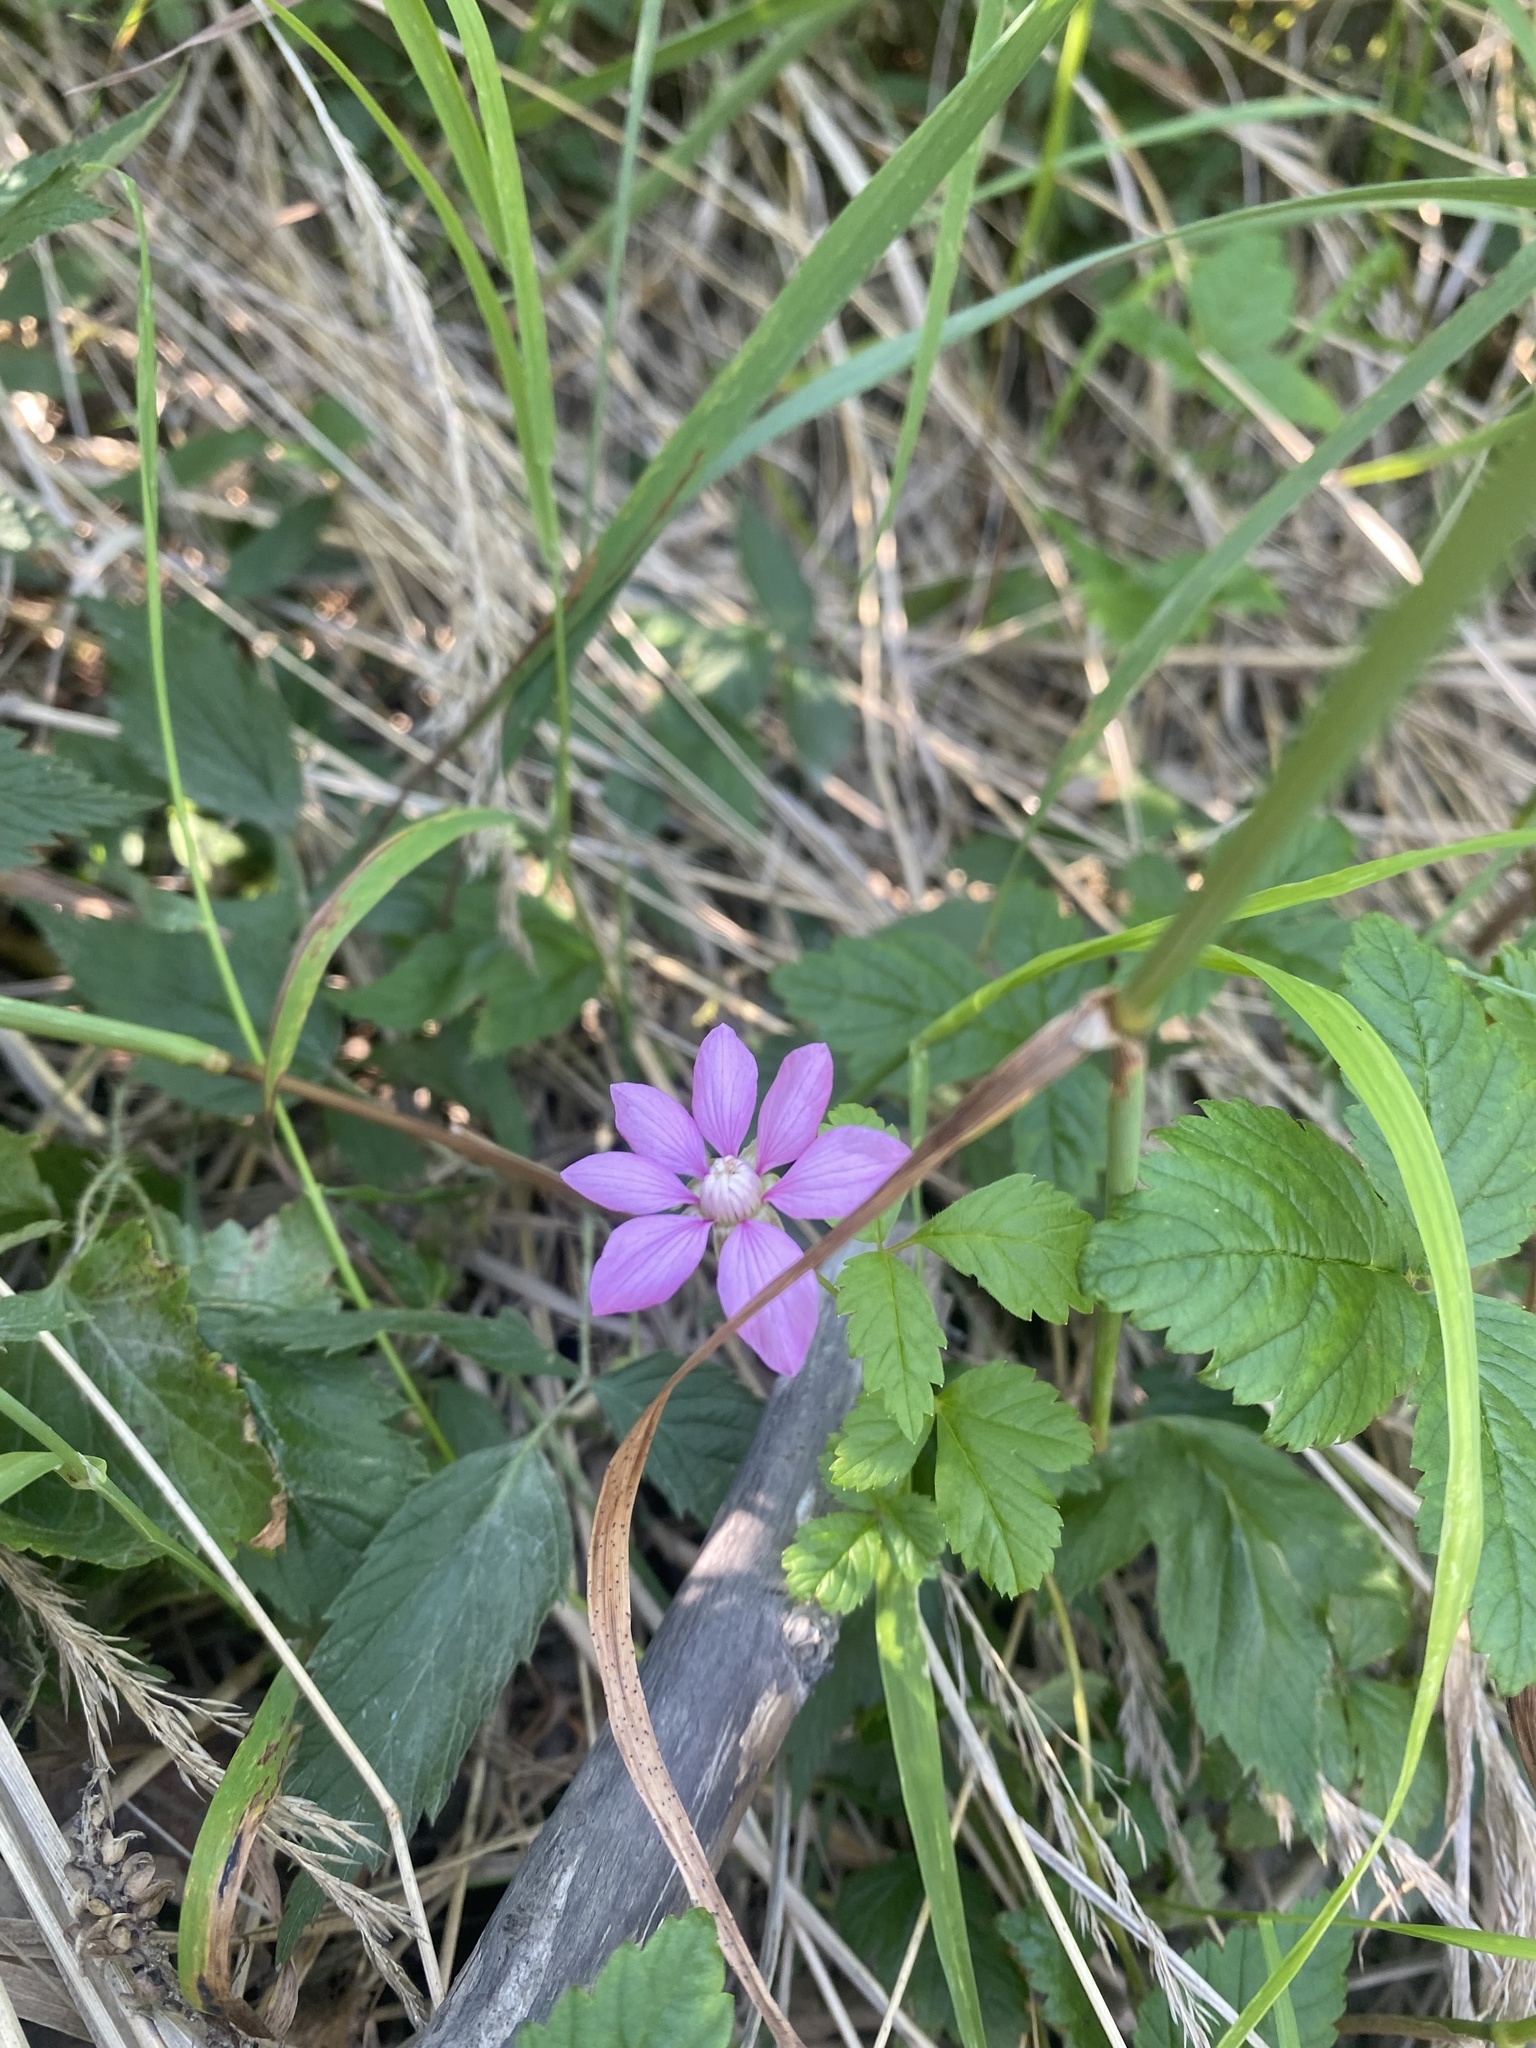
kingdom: Plantae
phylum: Tracheophyta
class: Magnoliopsida
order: Rosales
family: Rosaceae
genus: Rubus
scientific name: Rubus arcticus
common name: Arctic bramble
